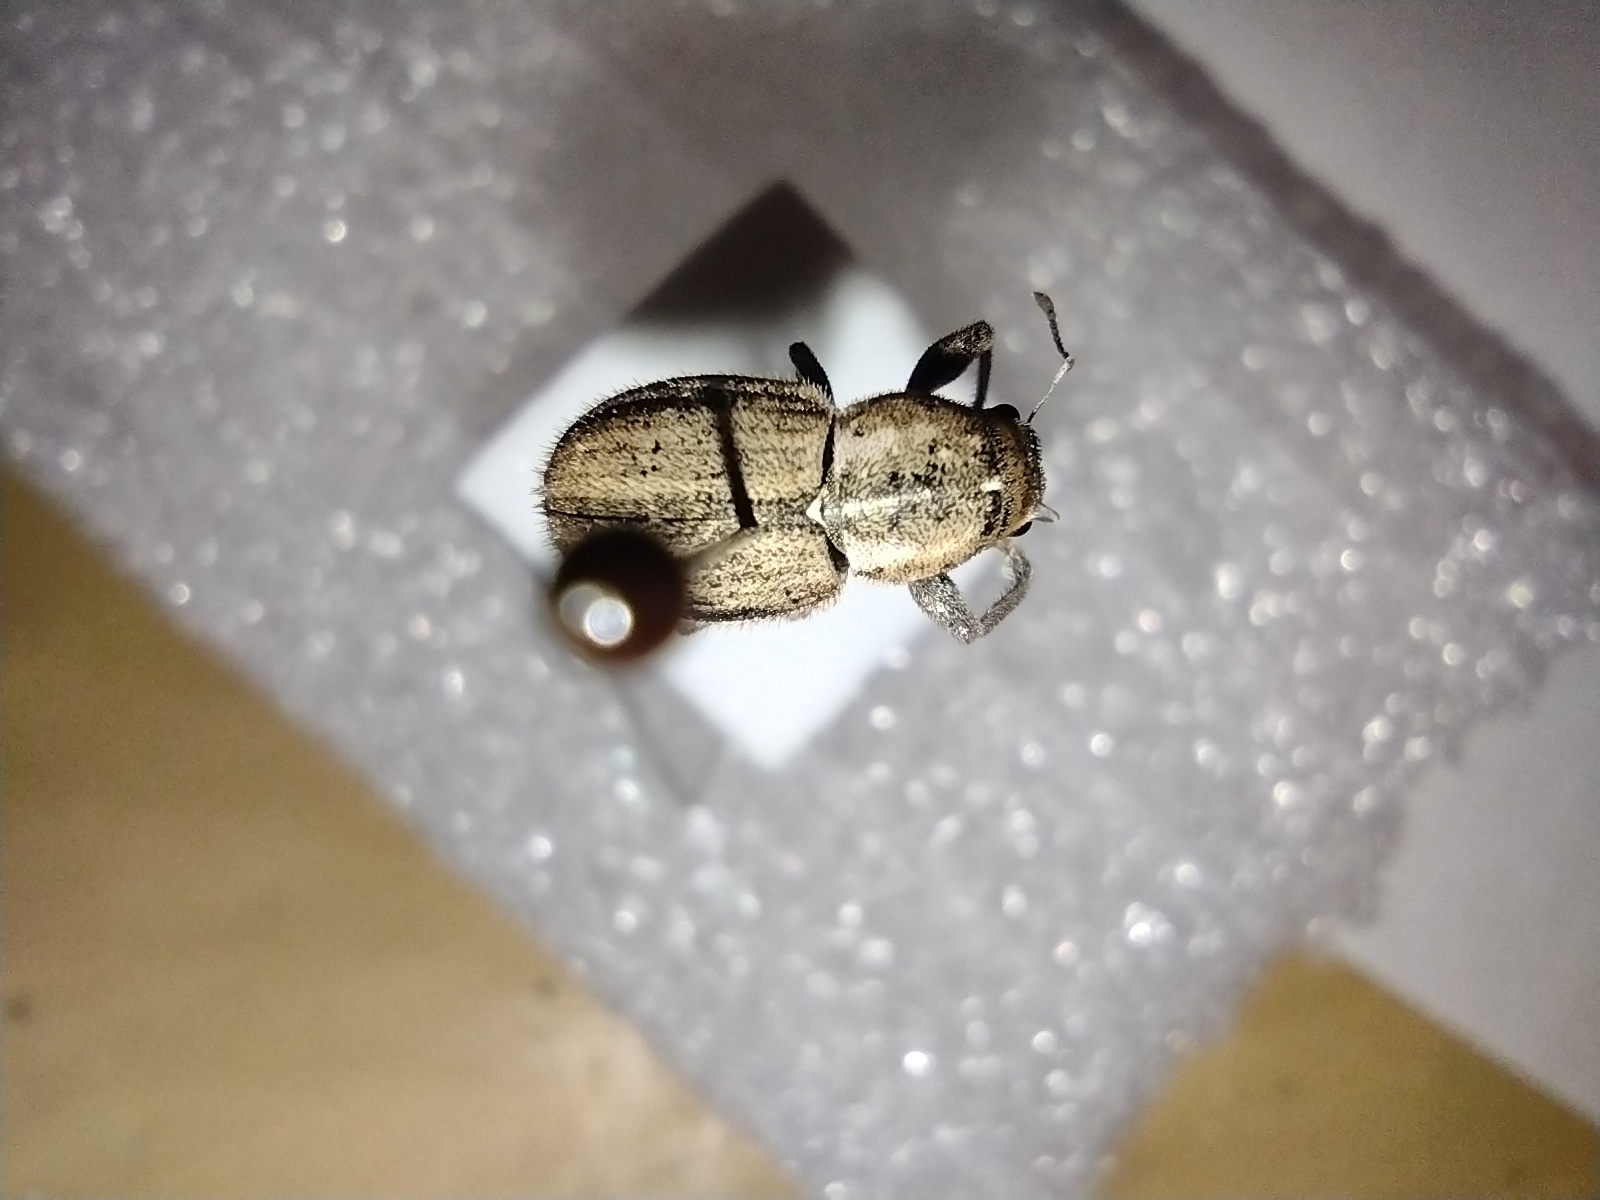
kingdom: Animalia
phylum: Arthropoda
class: Insecta
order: Coleoptera
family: Curculionidae
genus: Naupactus
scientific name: Naupactus peregrinus
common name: Whitefringed beetle
